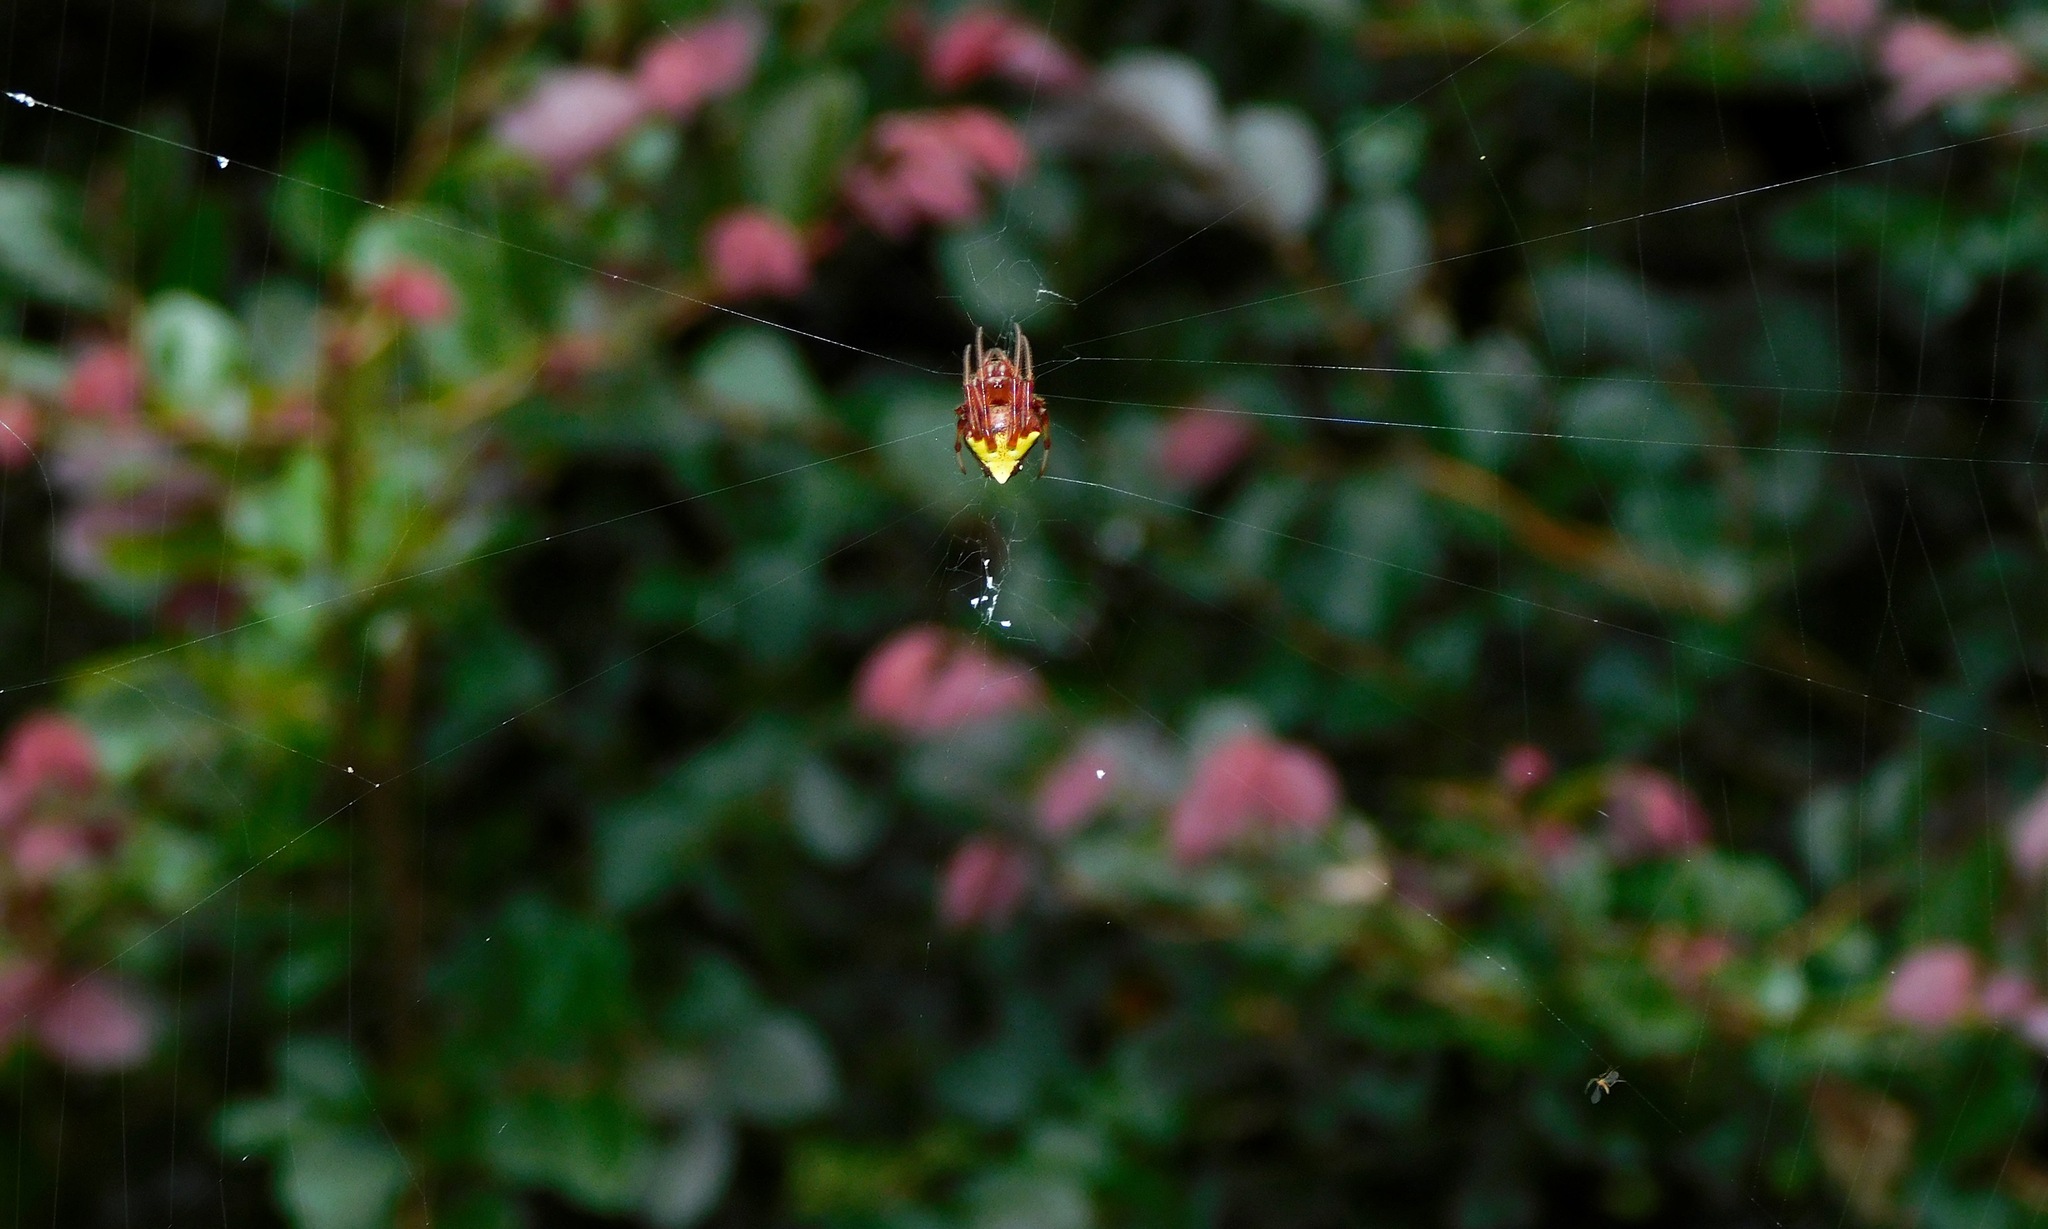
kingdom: Animalia
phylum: Arthropoda
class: Arachnida
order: Araneae
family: Araneidae
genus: Verrucosa
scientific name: Verrucosa arenata
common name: Orb weavers
